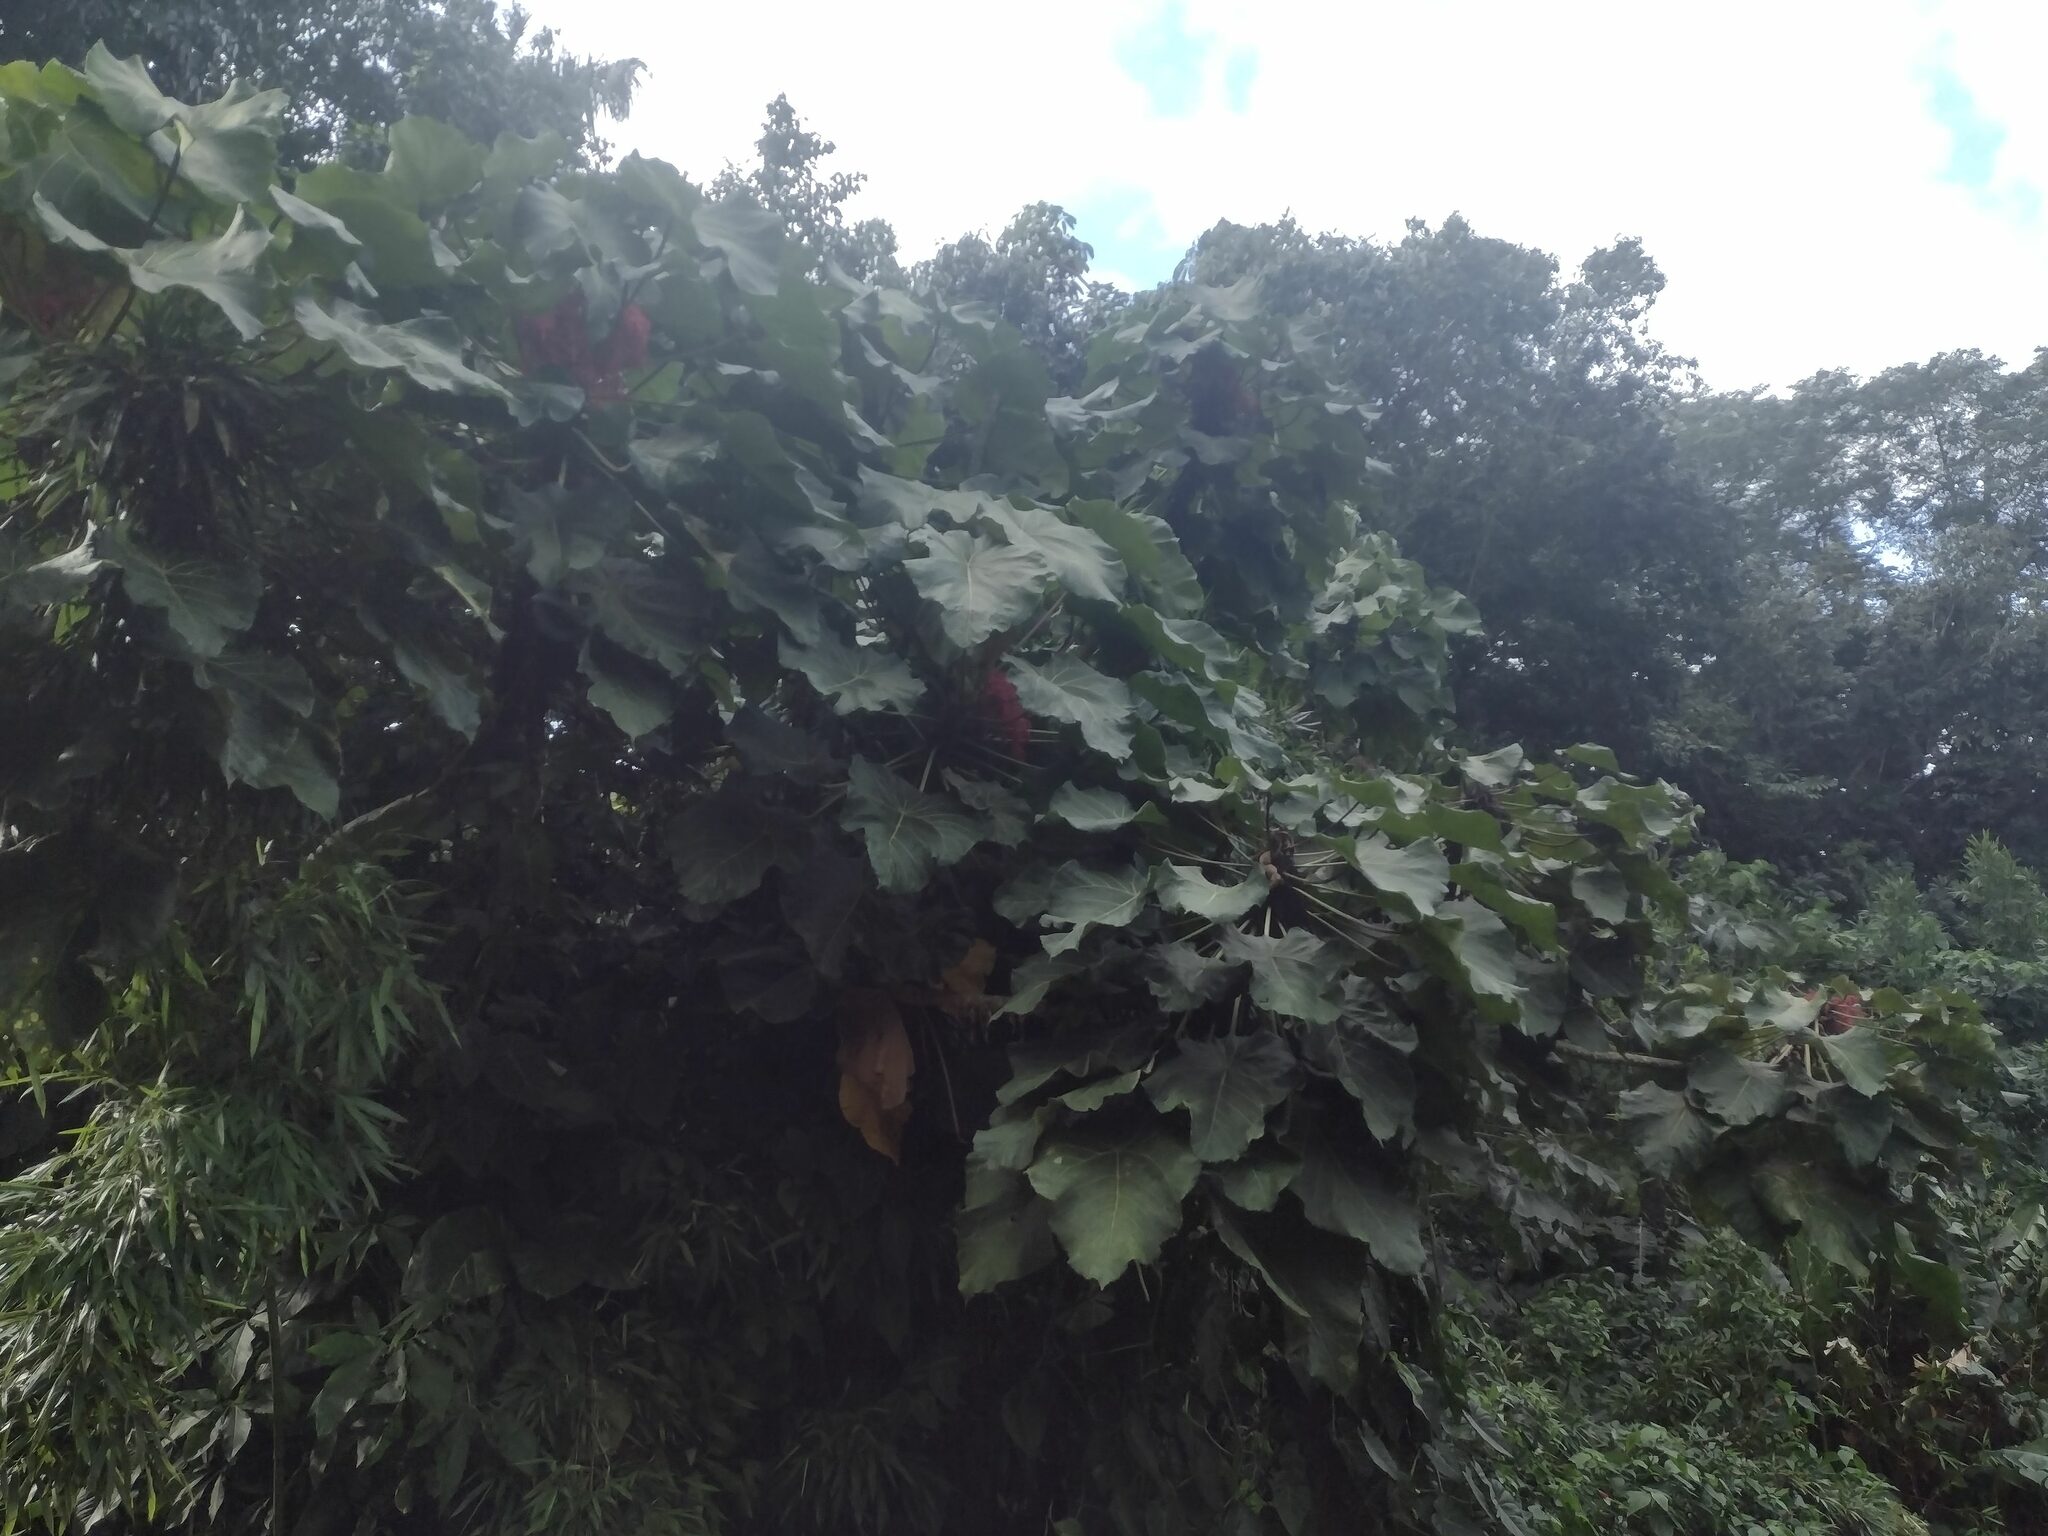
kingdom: Plantae
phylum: Tracheophyta
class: Magnoliopsida
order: Malpighiales
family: Euphorbiaceae
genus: Macaranga
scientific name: Macaranga mappa
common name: Pengua
